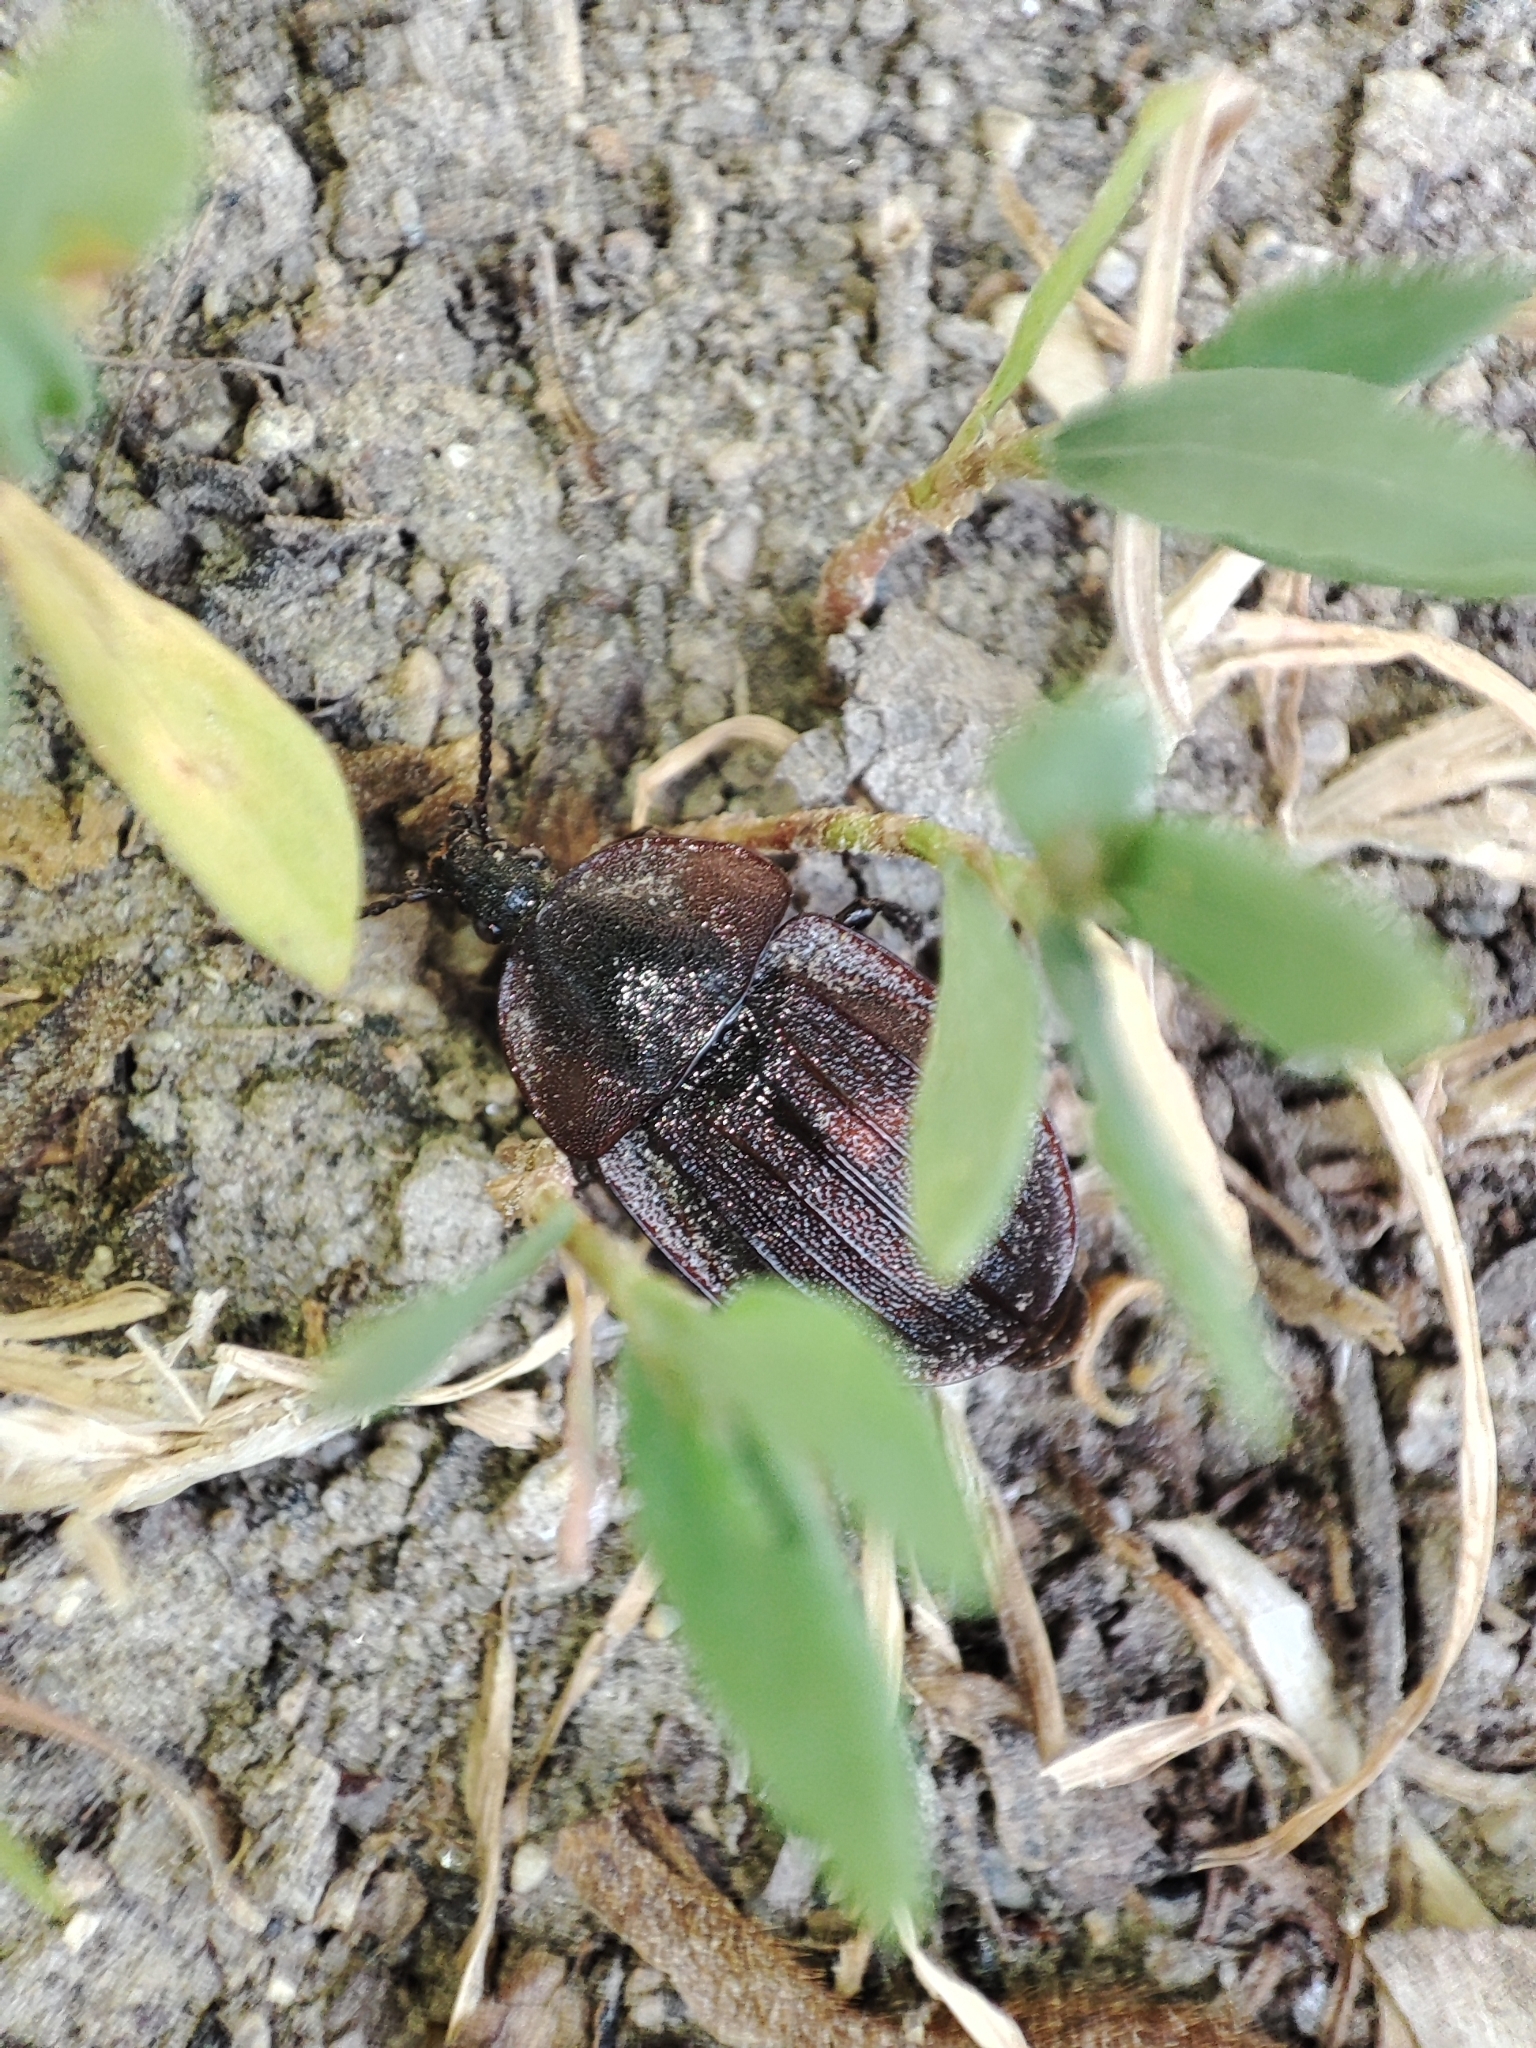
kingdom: Animalia
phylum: Arthropoda
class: Insecta
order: Coleoptera
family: Staphylinidae
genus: Silpha
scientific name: Silpha atrata
